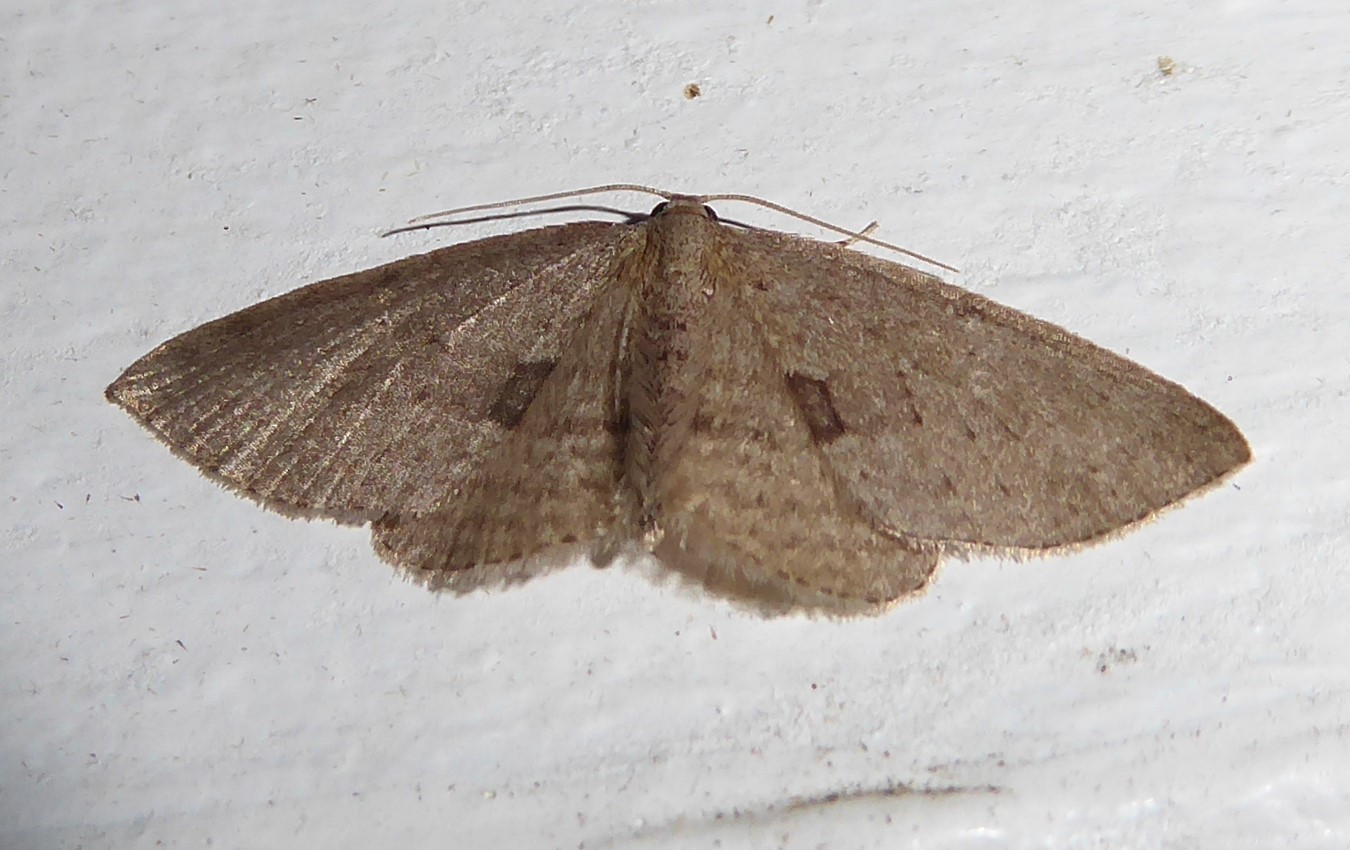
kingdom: Animalia
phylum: Arthropoda
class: Insecta
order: Lepidoptera
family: Geometridae
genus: Poecilasthena
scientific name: Poecilasthena schistaria
